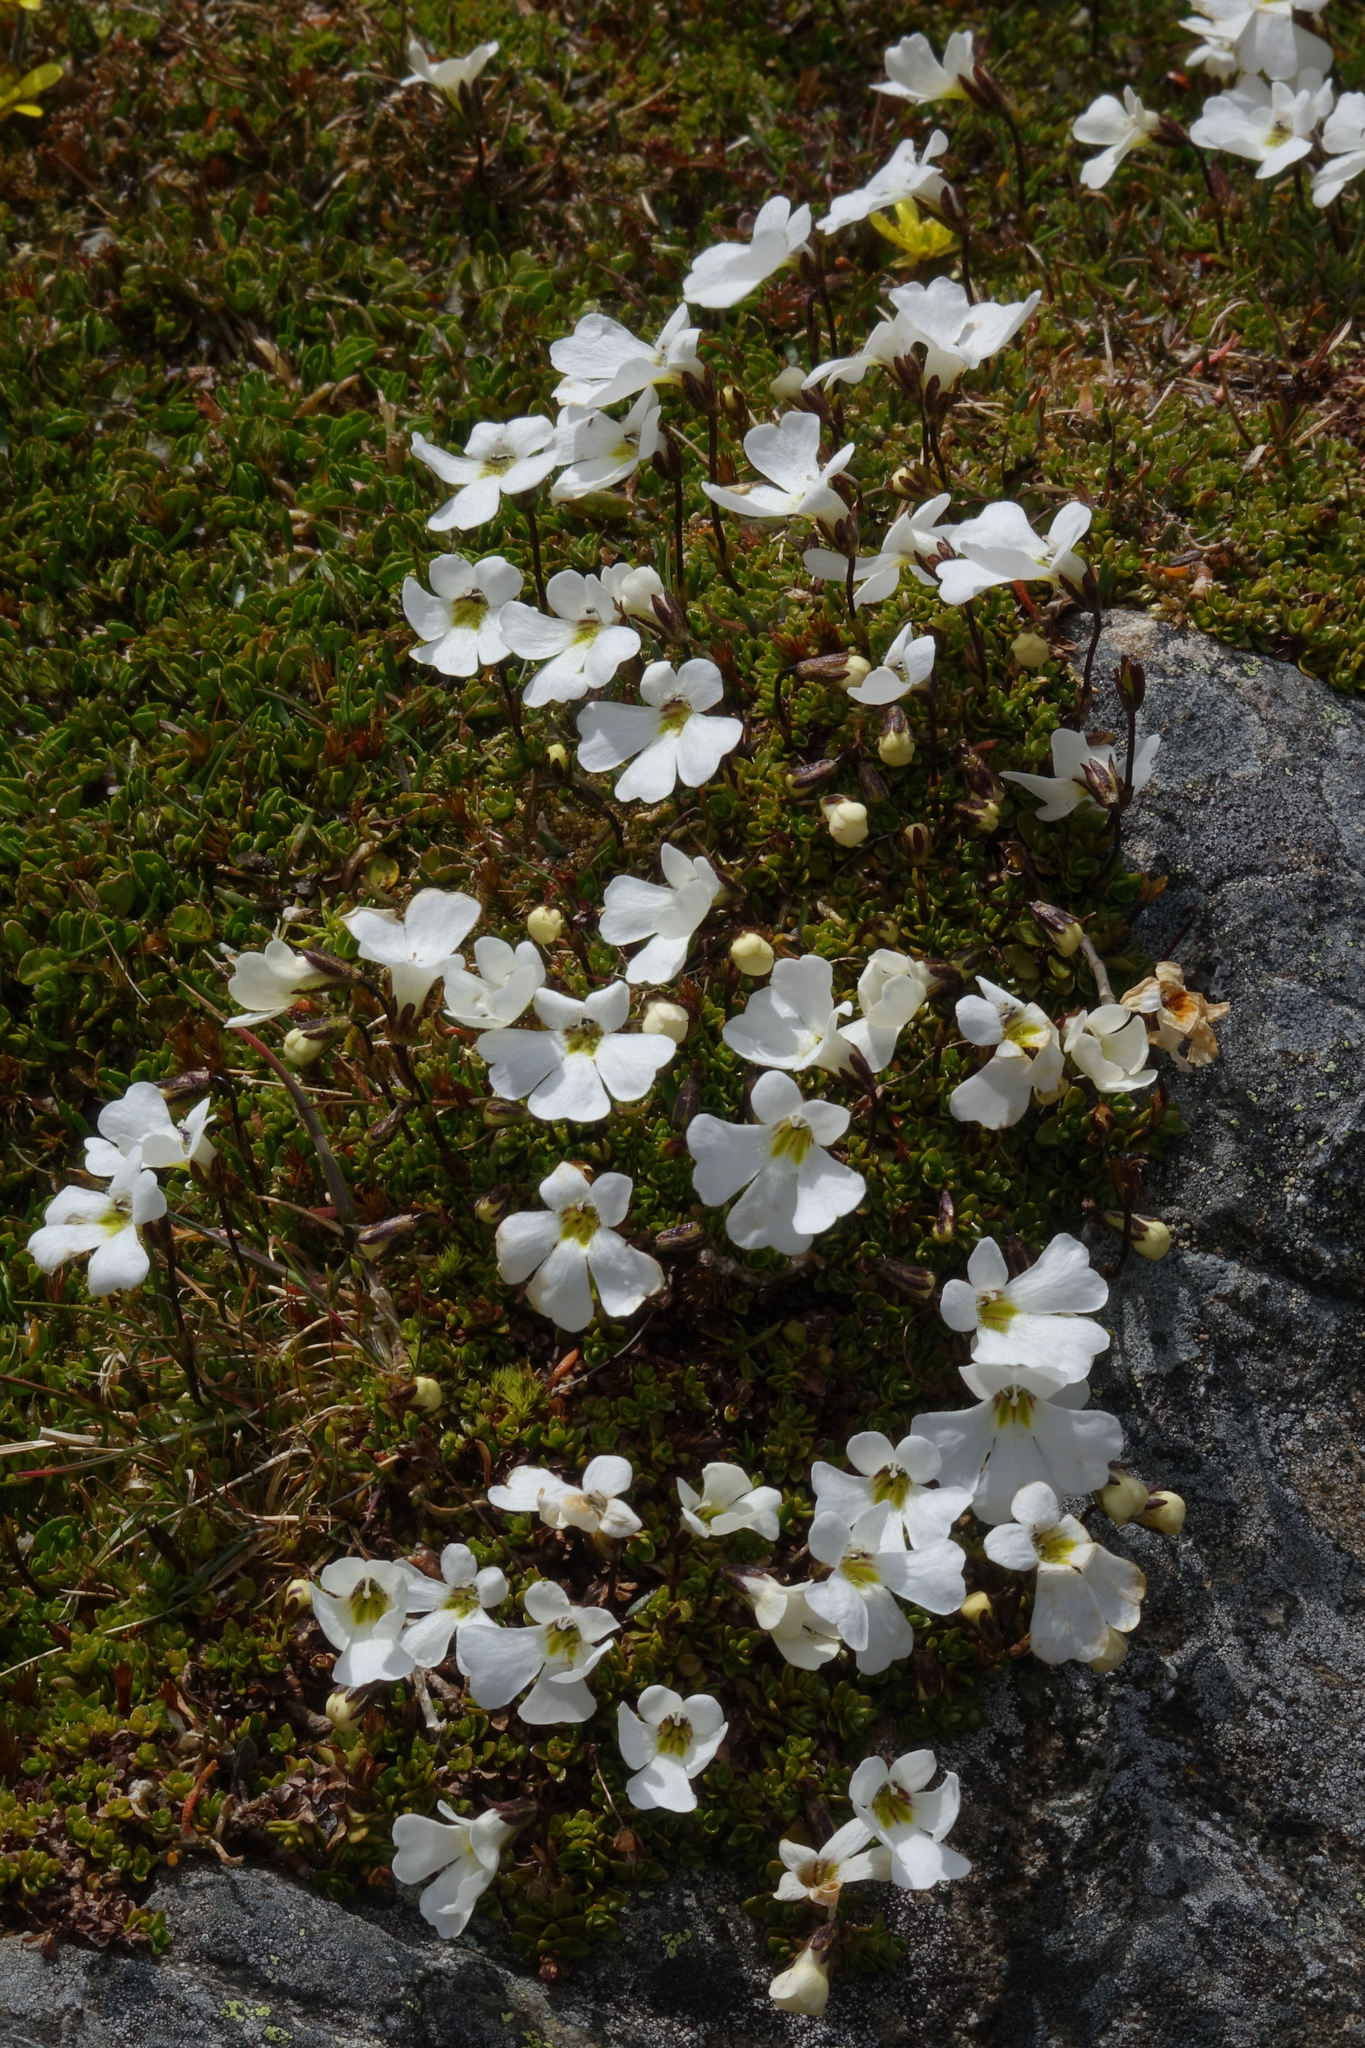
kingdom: Plantae
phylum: Tracheophyta
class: Magnoliopsida
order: Lamiales
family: Plantaginaceae
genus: Ourisia
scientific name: Ourisia caespitosa
